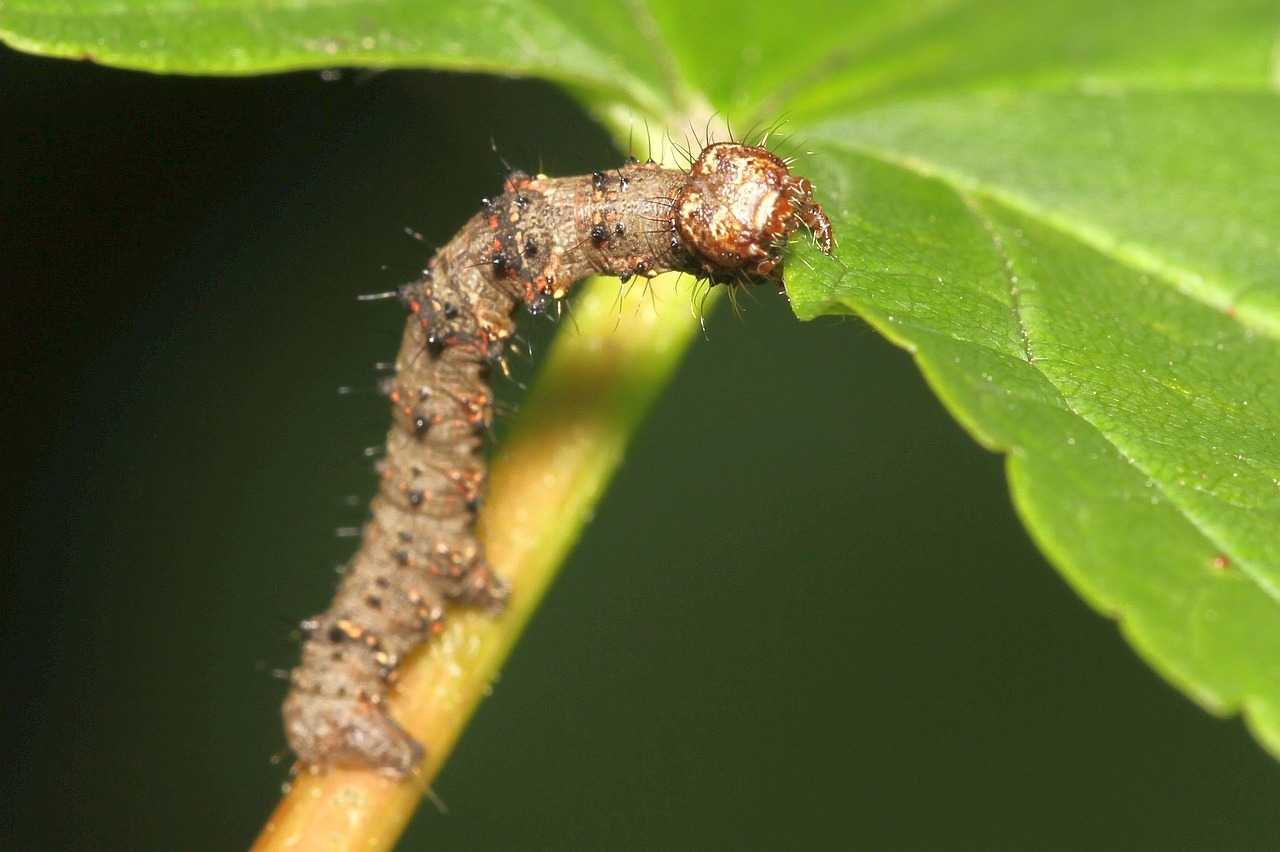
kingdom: Animalia
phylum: Arthropoda
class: Insecta
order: Lepidoptera
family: Geometridae
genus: Phigalia
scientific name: Phigalia pilosaria
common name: Pale brindled beauty
